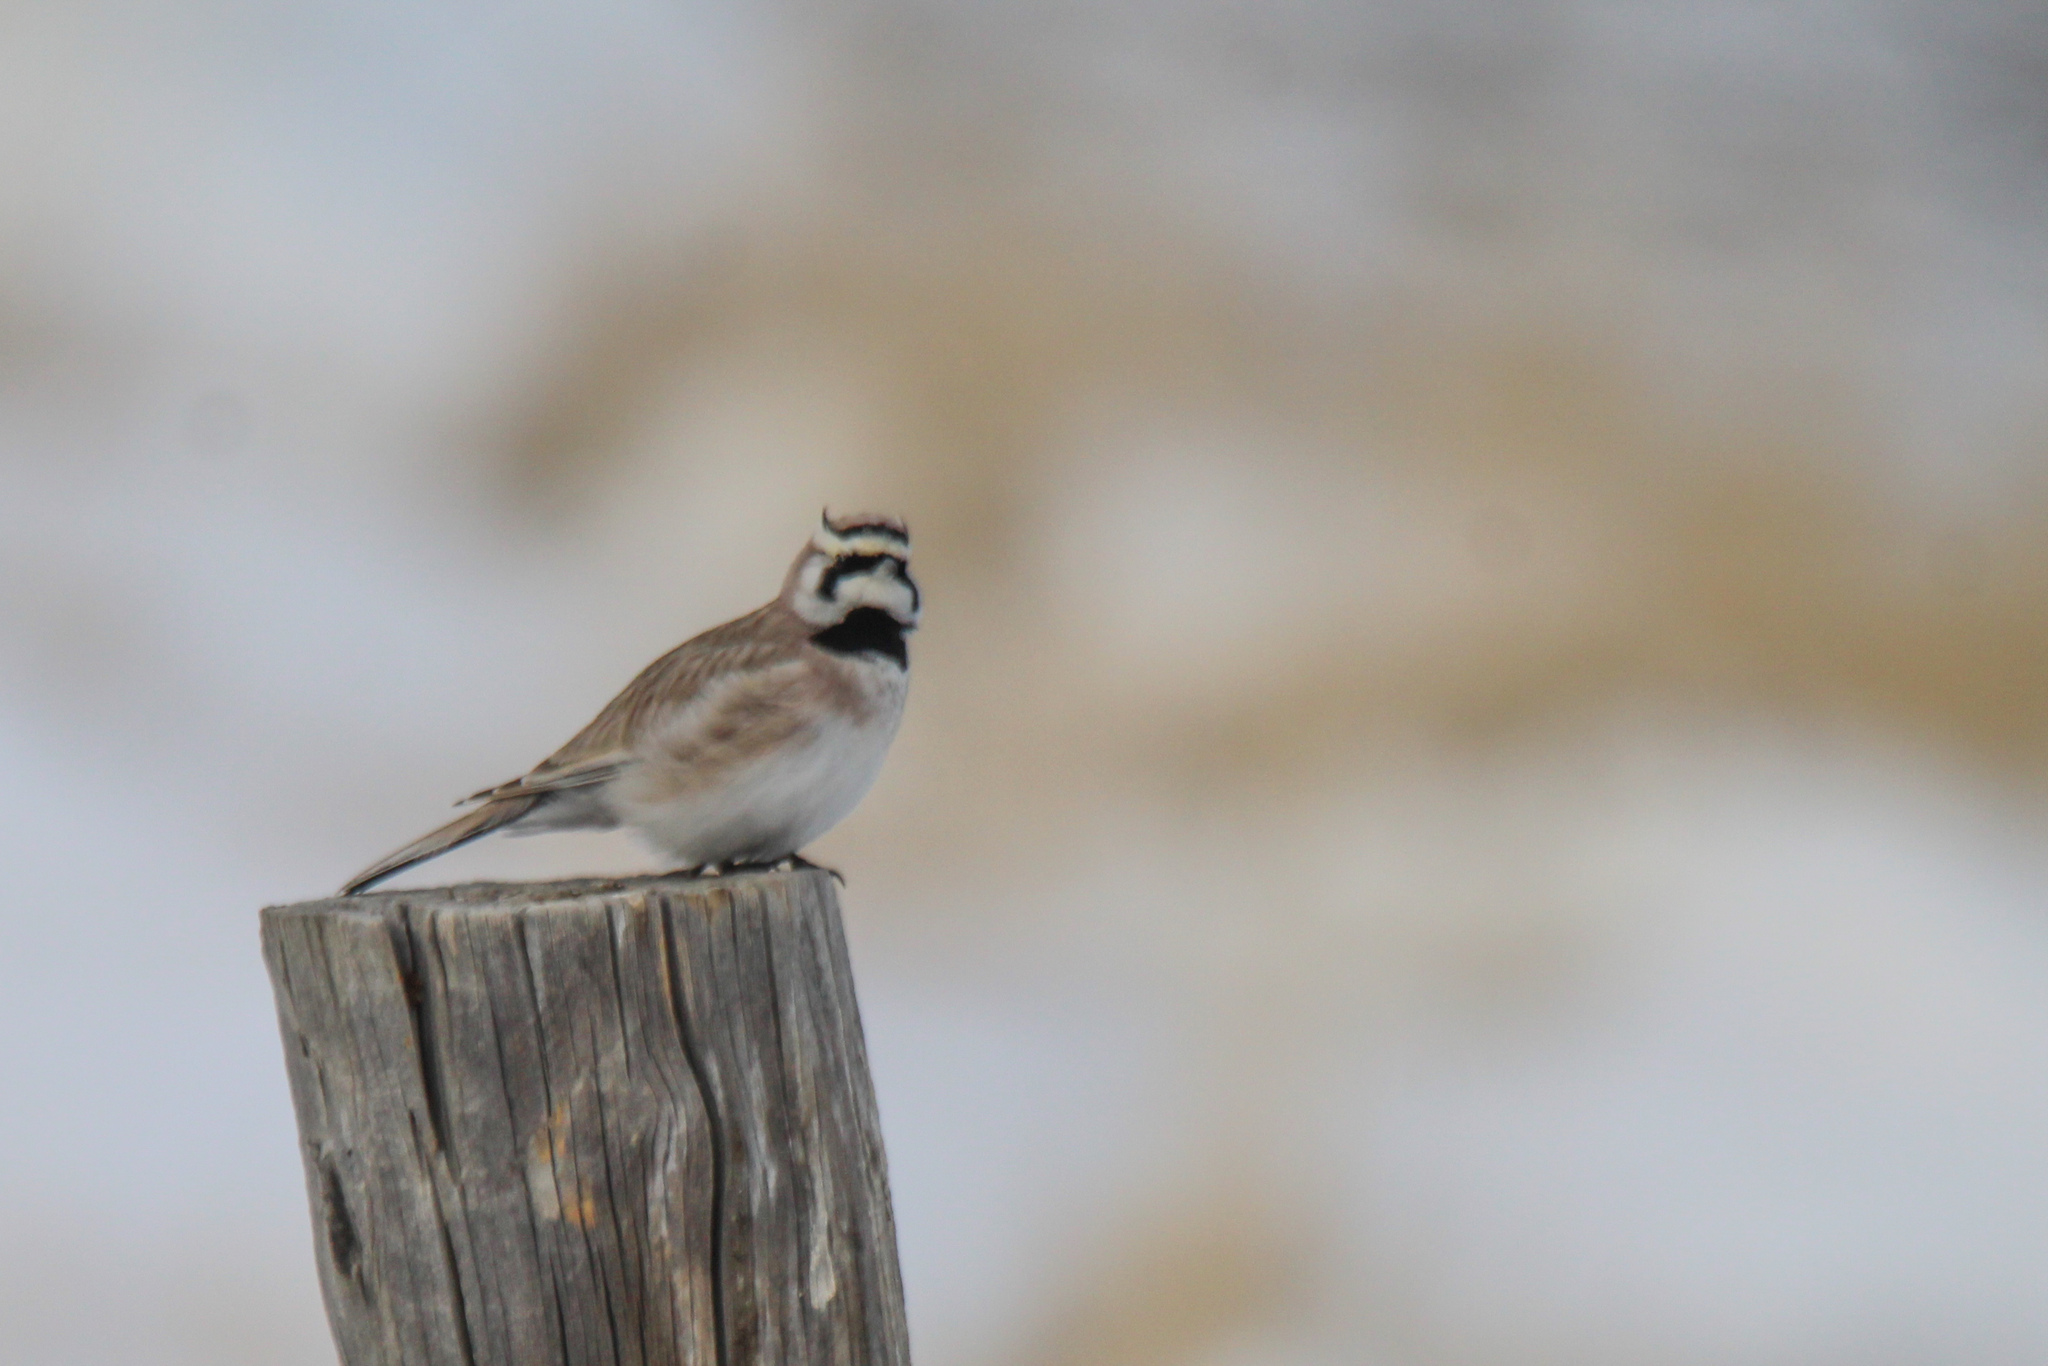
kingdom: Animalia
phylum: Chordata
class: Aves
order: Passeriformes
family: Alaudidae
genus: Eremophila
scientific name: Eremophila alpestris
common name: Horned lark
